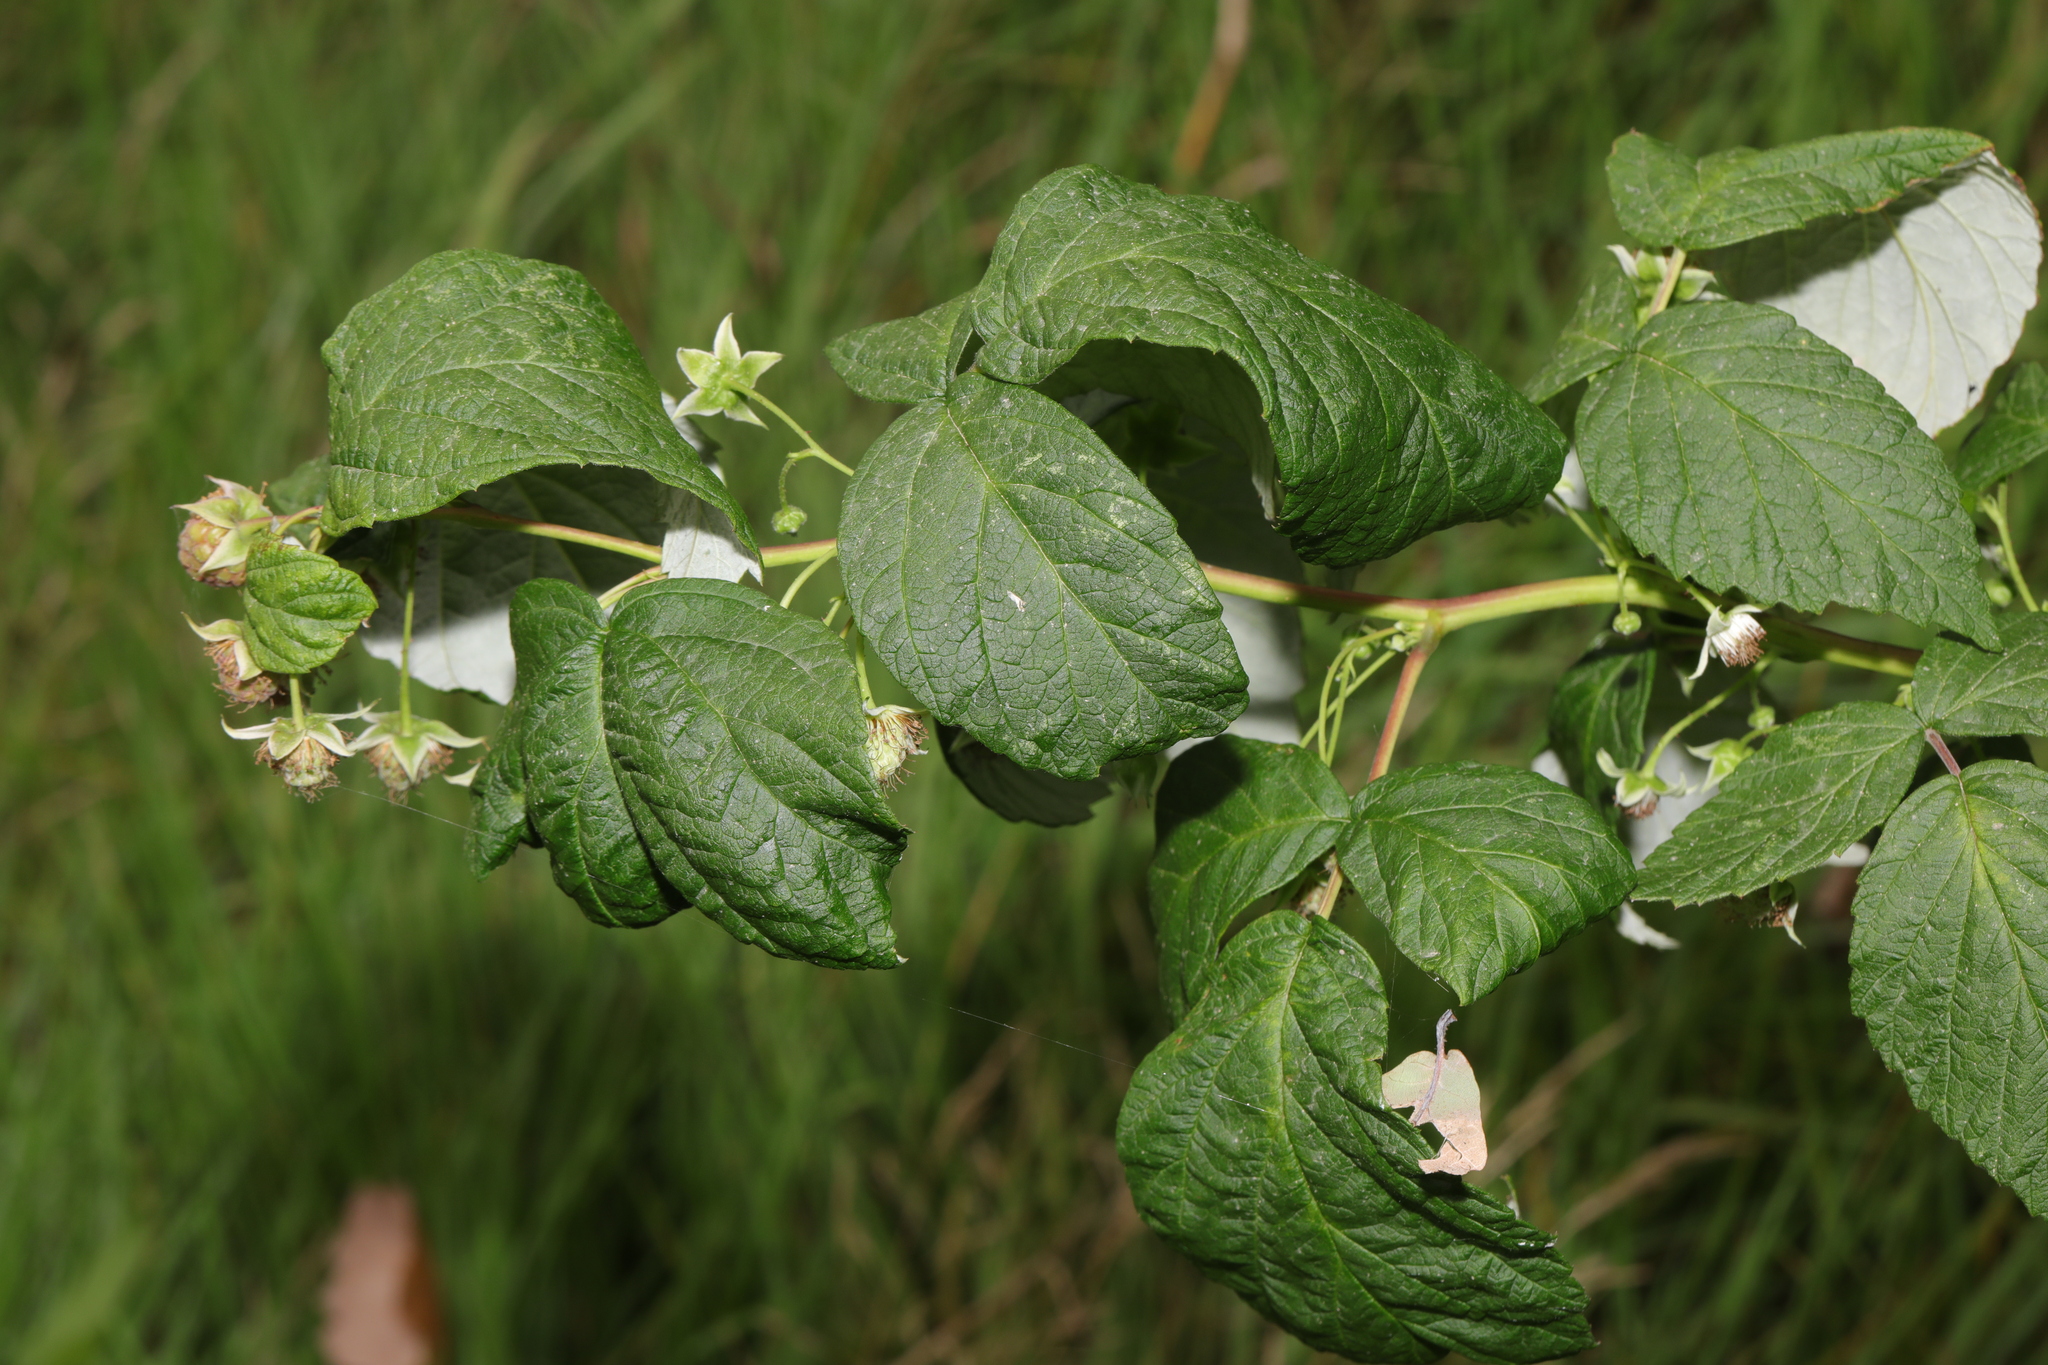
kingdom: Plantae
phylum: Tracheophyta
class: Magnoliopsida
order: Rosales
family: Rosaceae
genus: Rubus
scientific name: Rubus idaeus
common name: Raspberry
